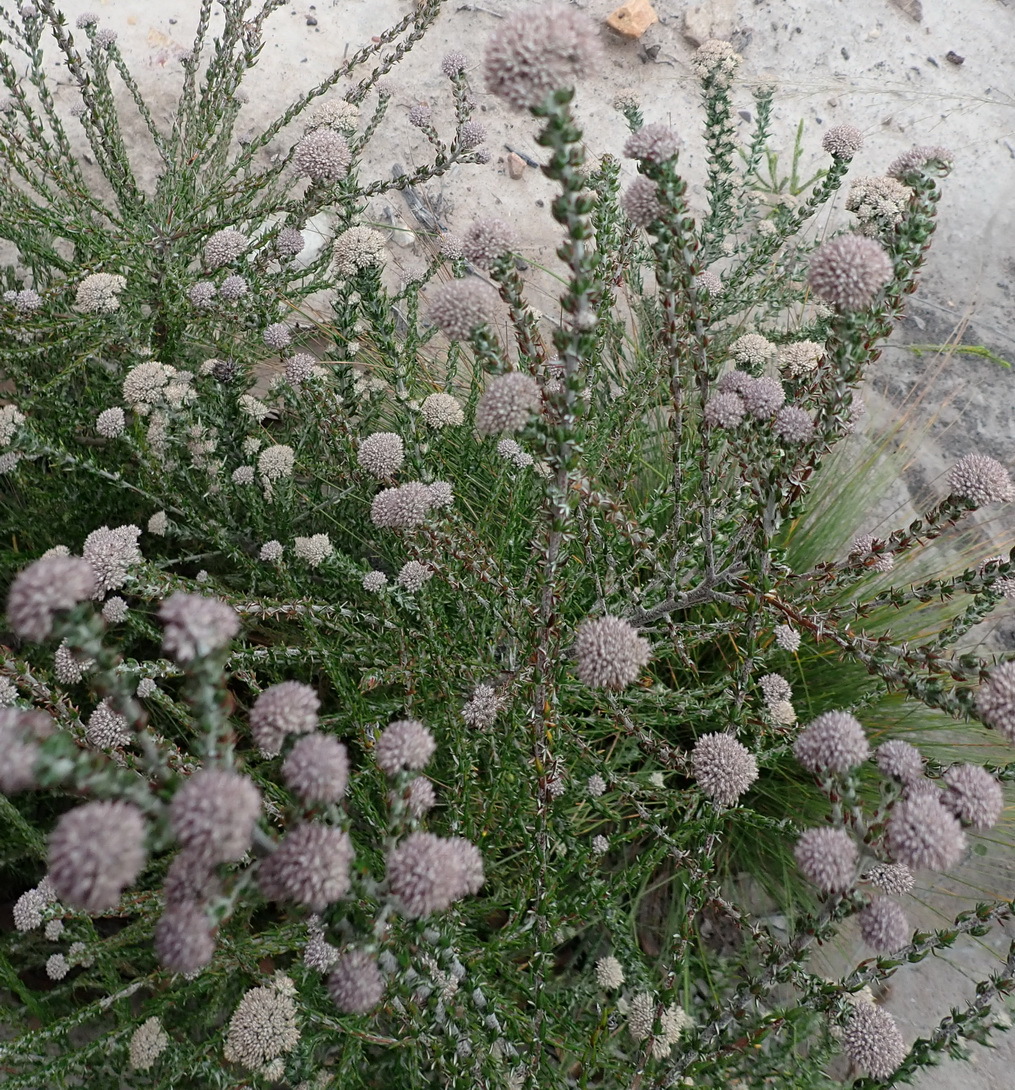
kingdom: Plantae
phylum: Tracheophyta
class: Magnoliopsida
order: Asterales
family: Asteraceae
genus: Metalasia
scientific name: Metalasia pungens
